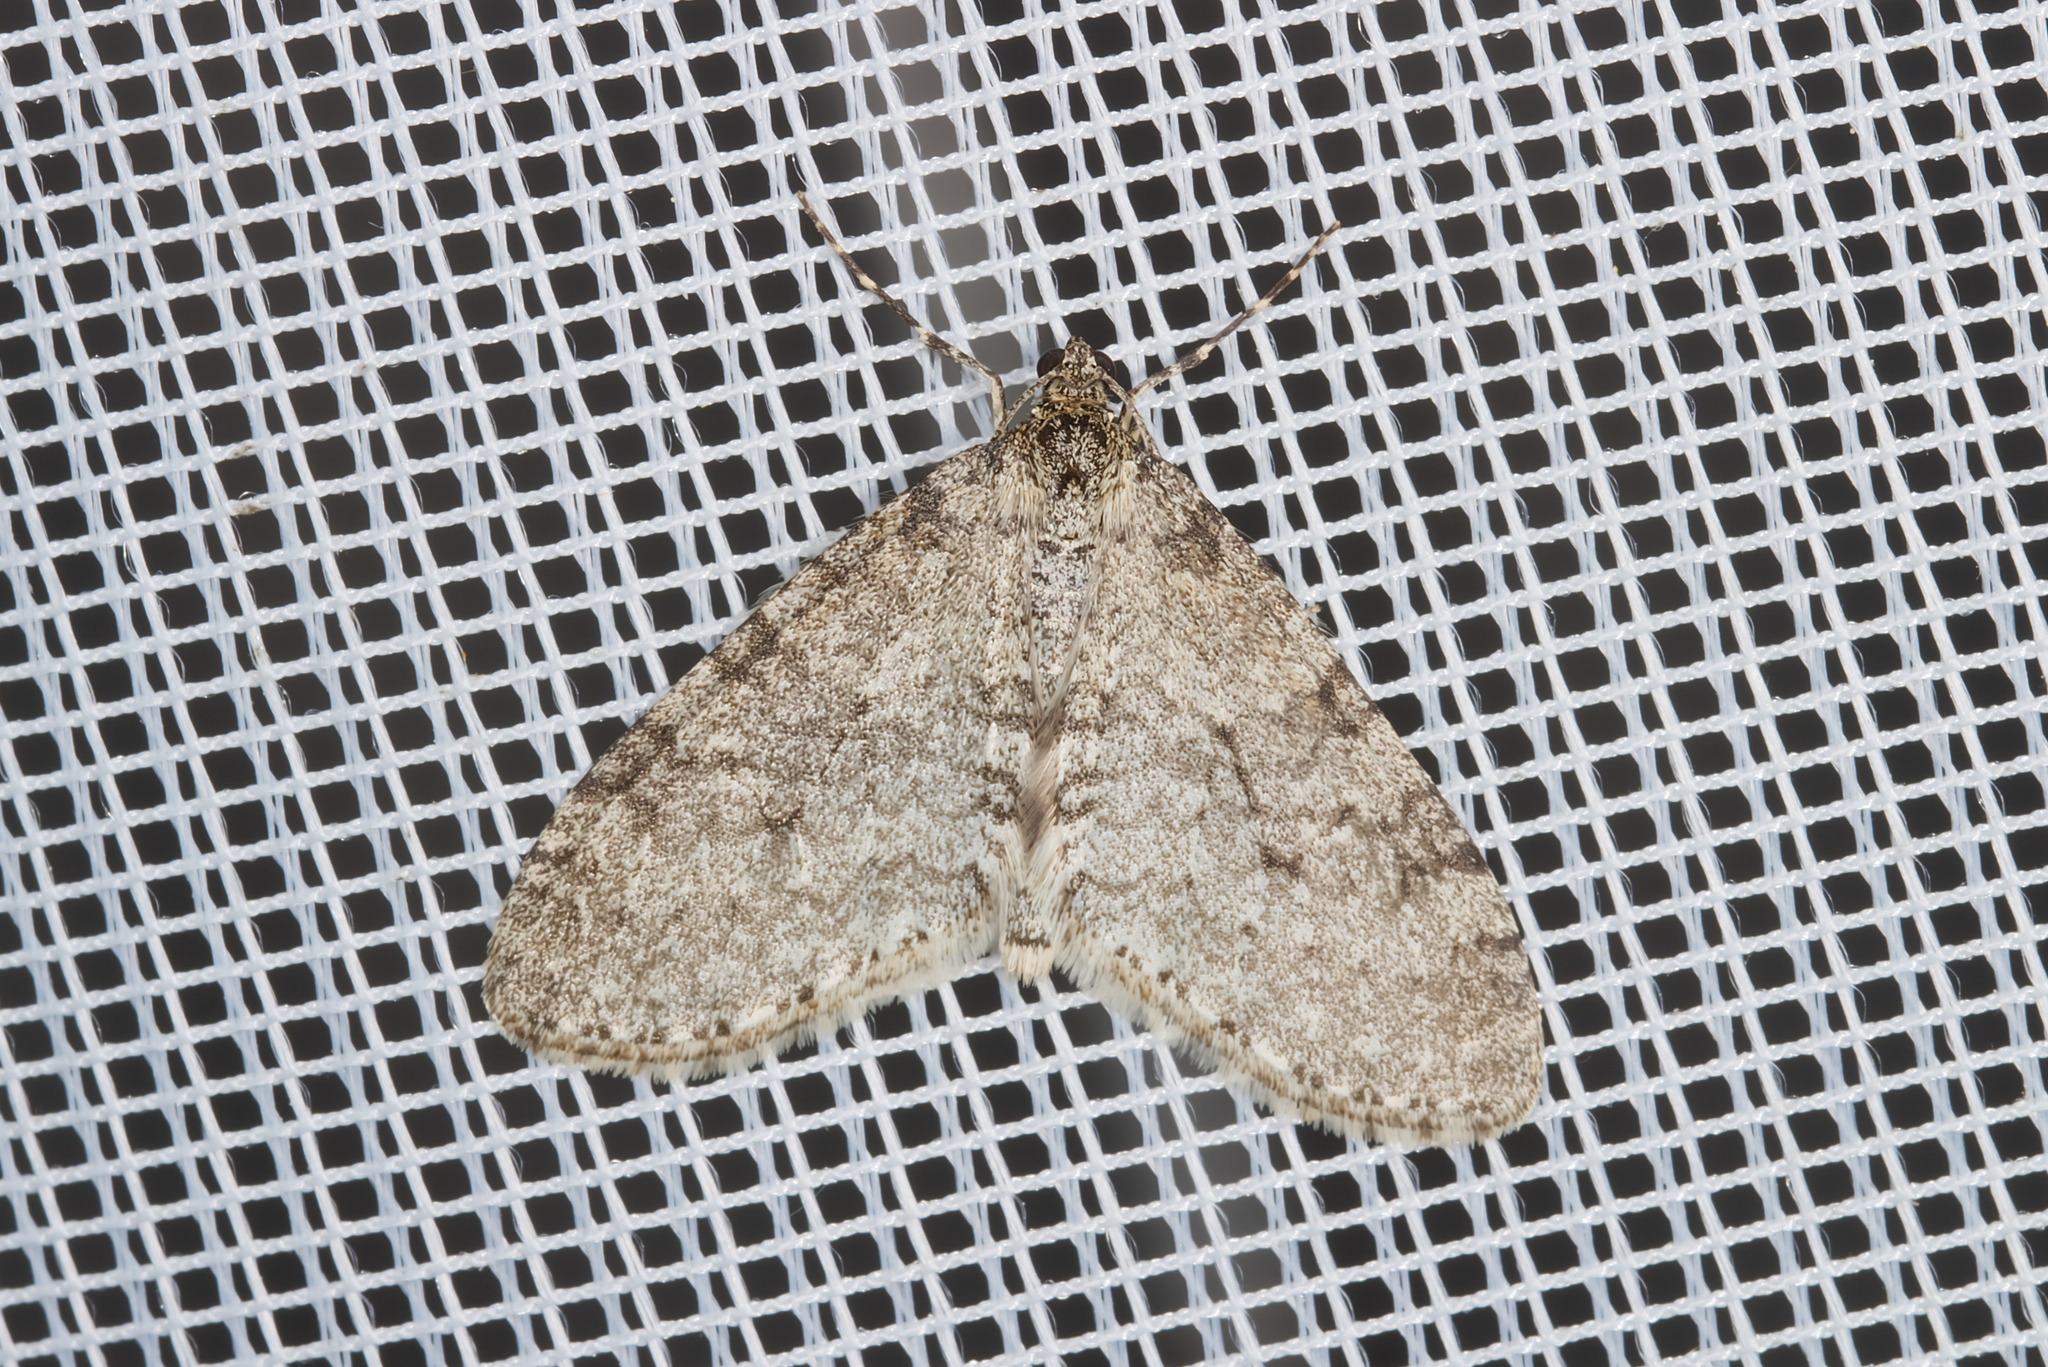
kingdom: Animalia
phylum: Arthropoda
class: Insecta
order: Lepidoptera
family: Geometridae
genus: Trichopteryx
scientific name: Trichopteryx carpinata
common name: Early tooth-striped
